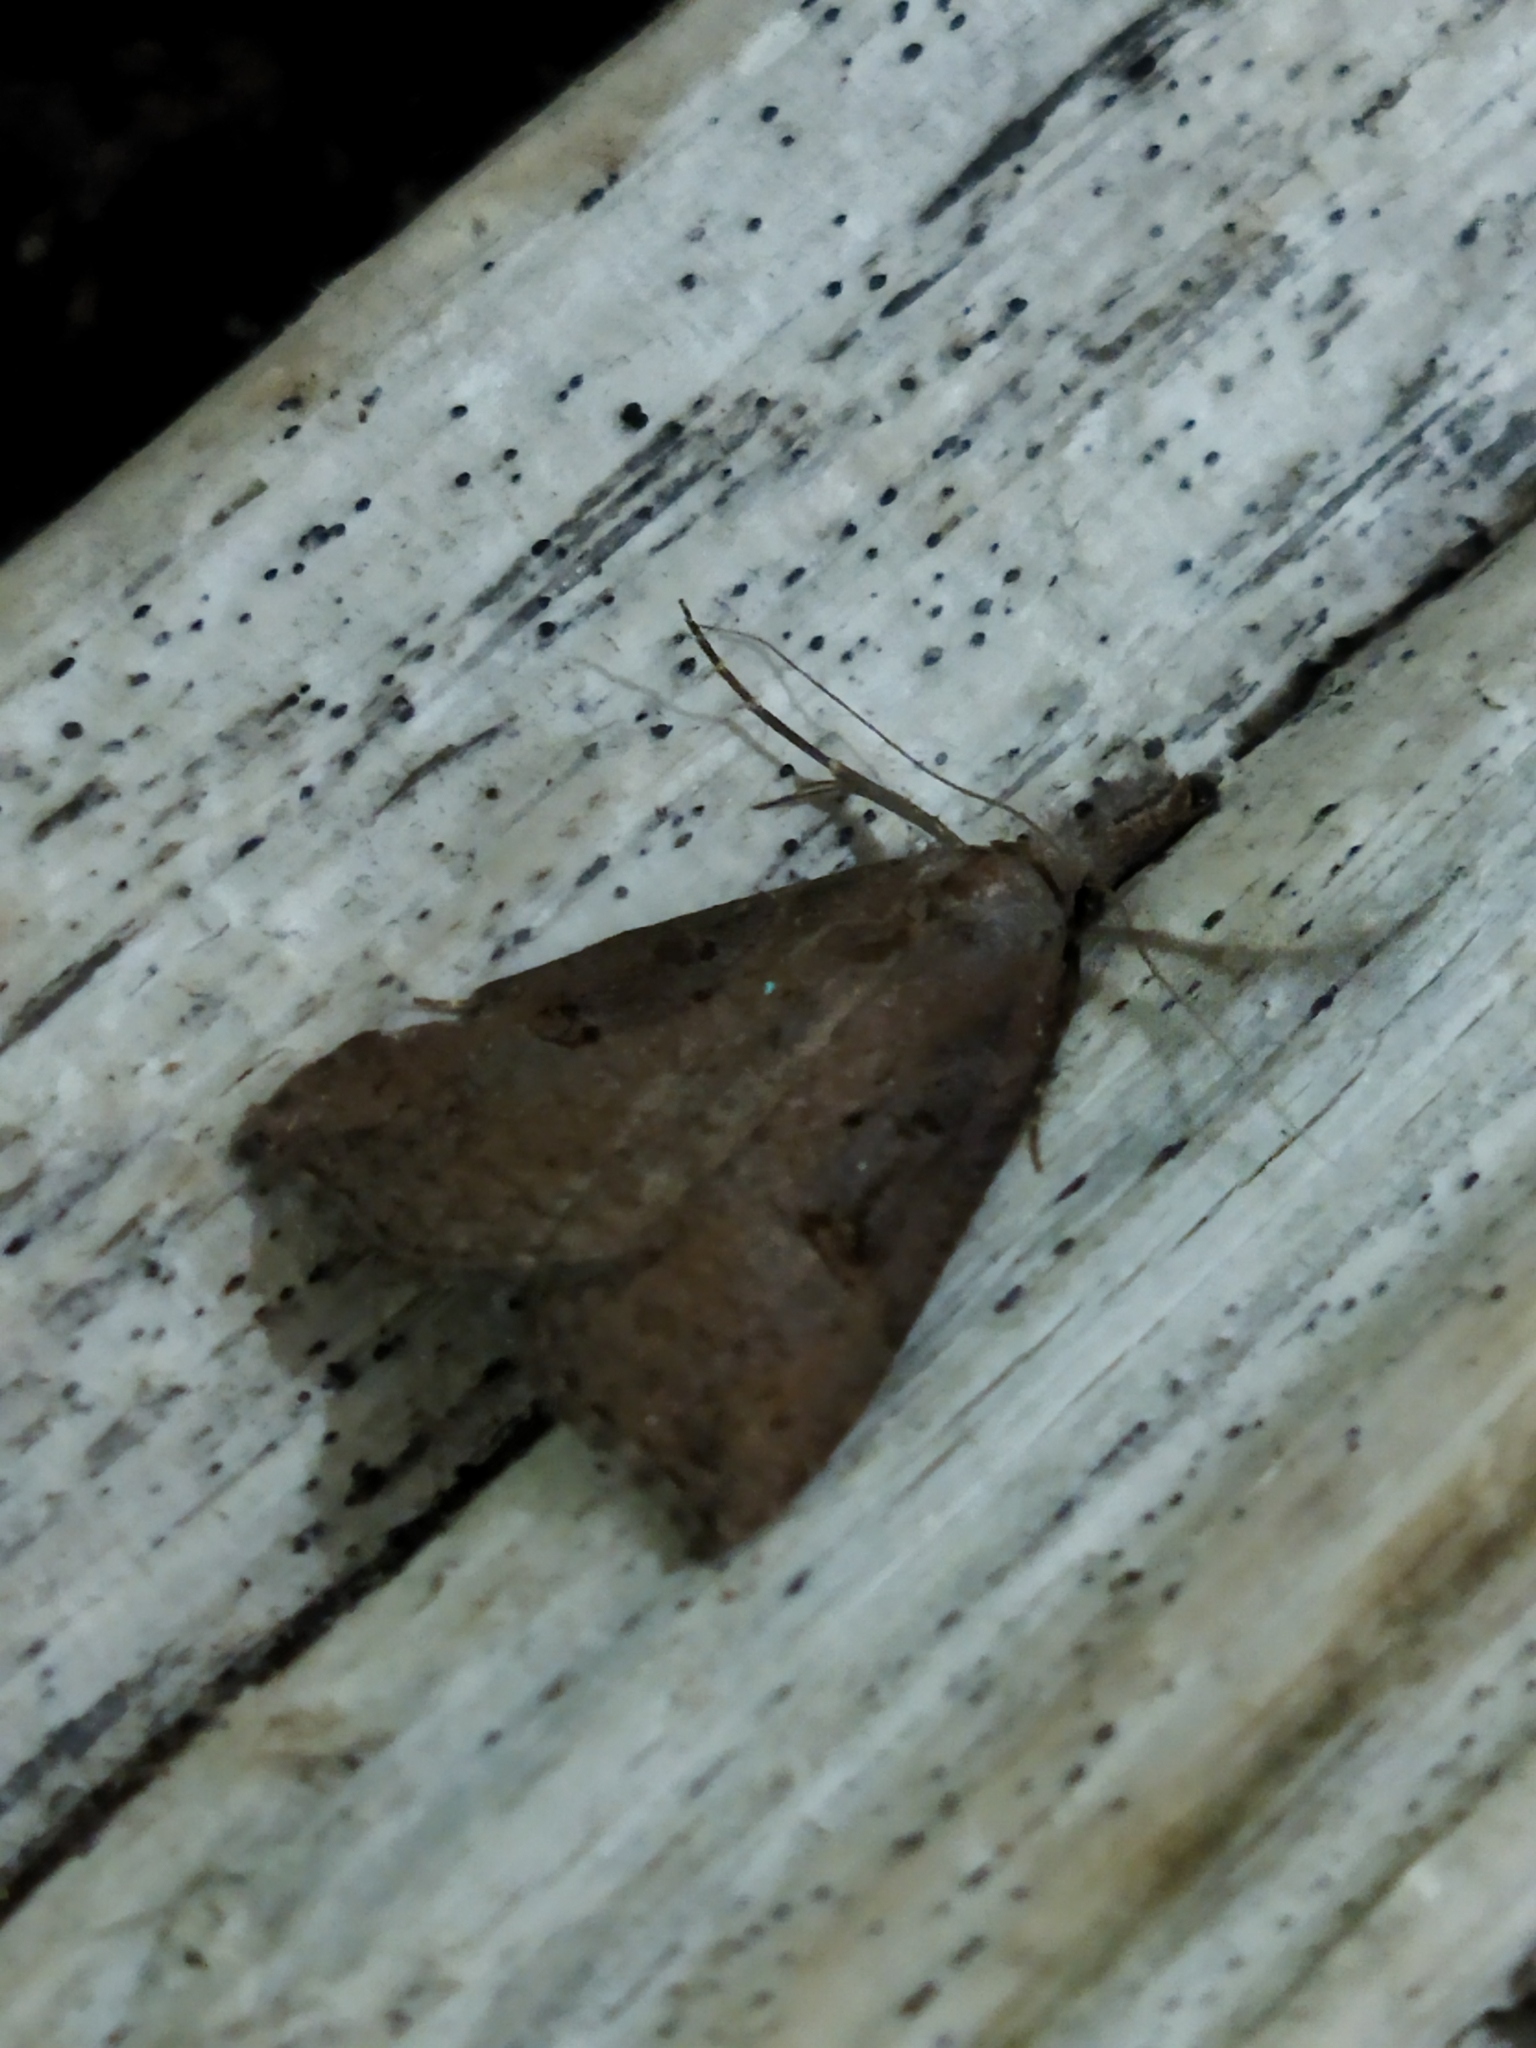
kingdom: Animalia
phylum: Arthropoda
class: Insecta
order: Lepidoptera
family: Erebidae
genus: Hypena
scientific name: Hypena rostralis
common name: Buttoned snout
